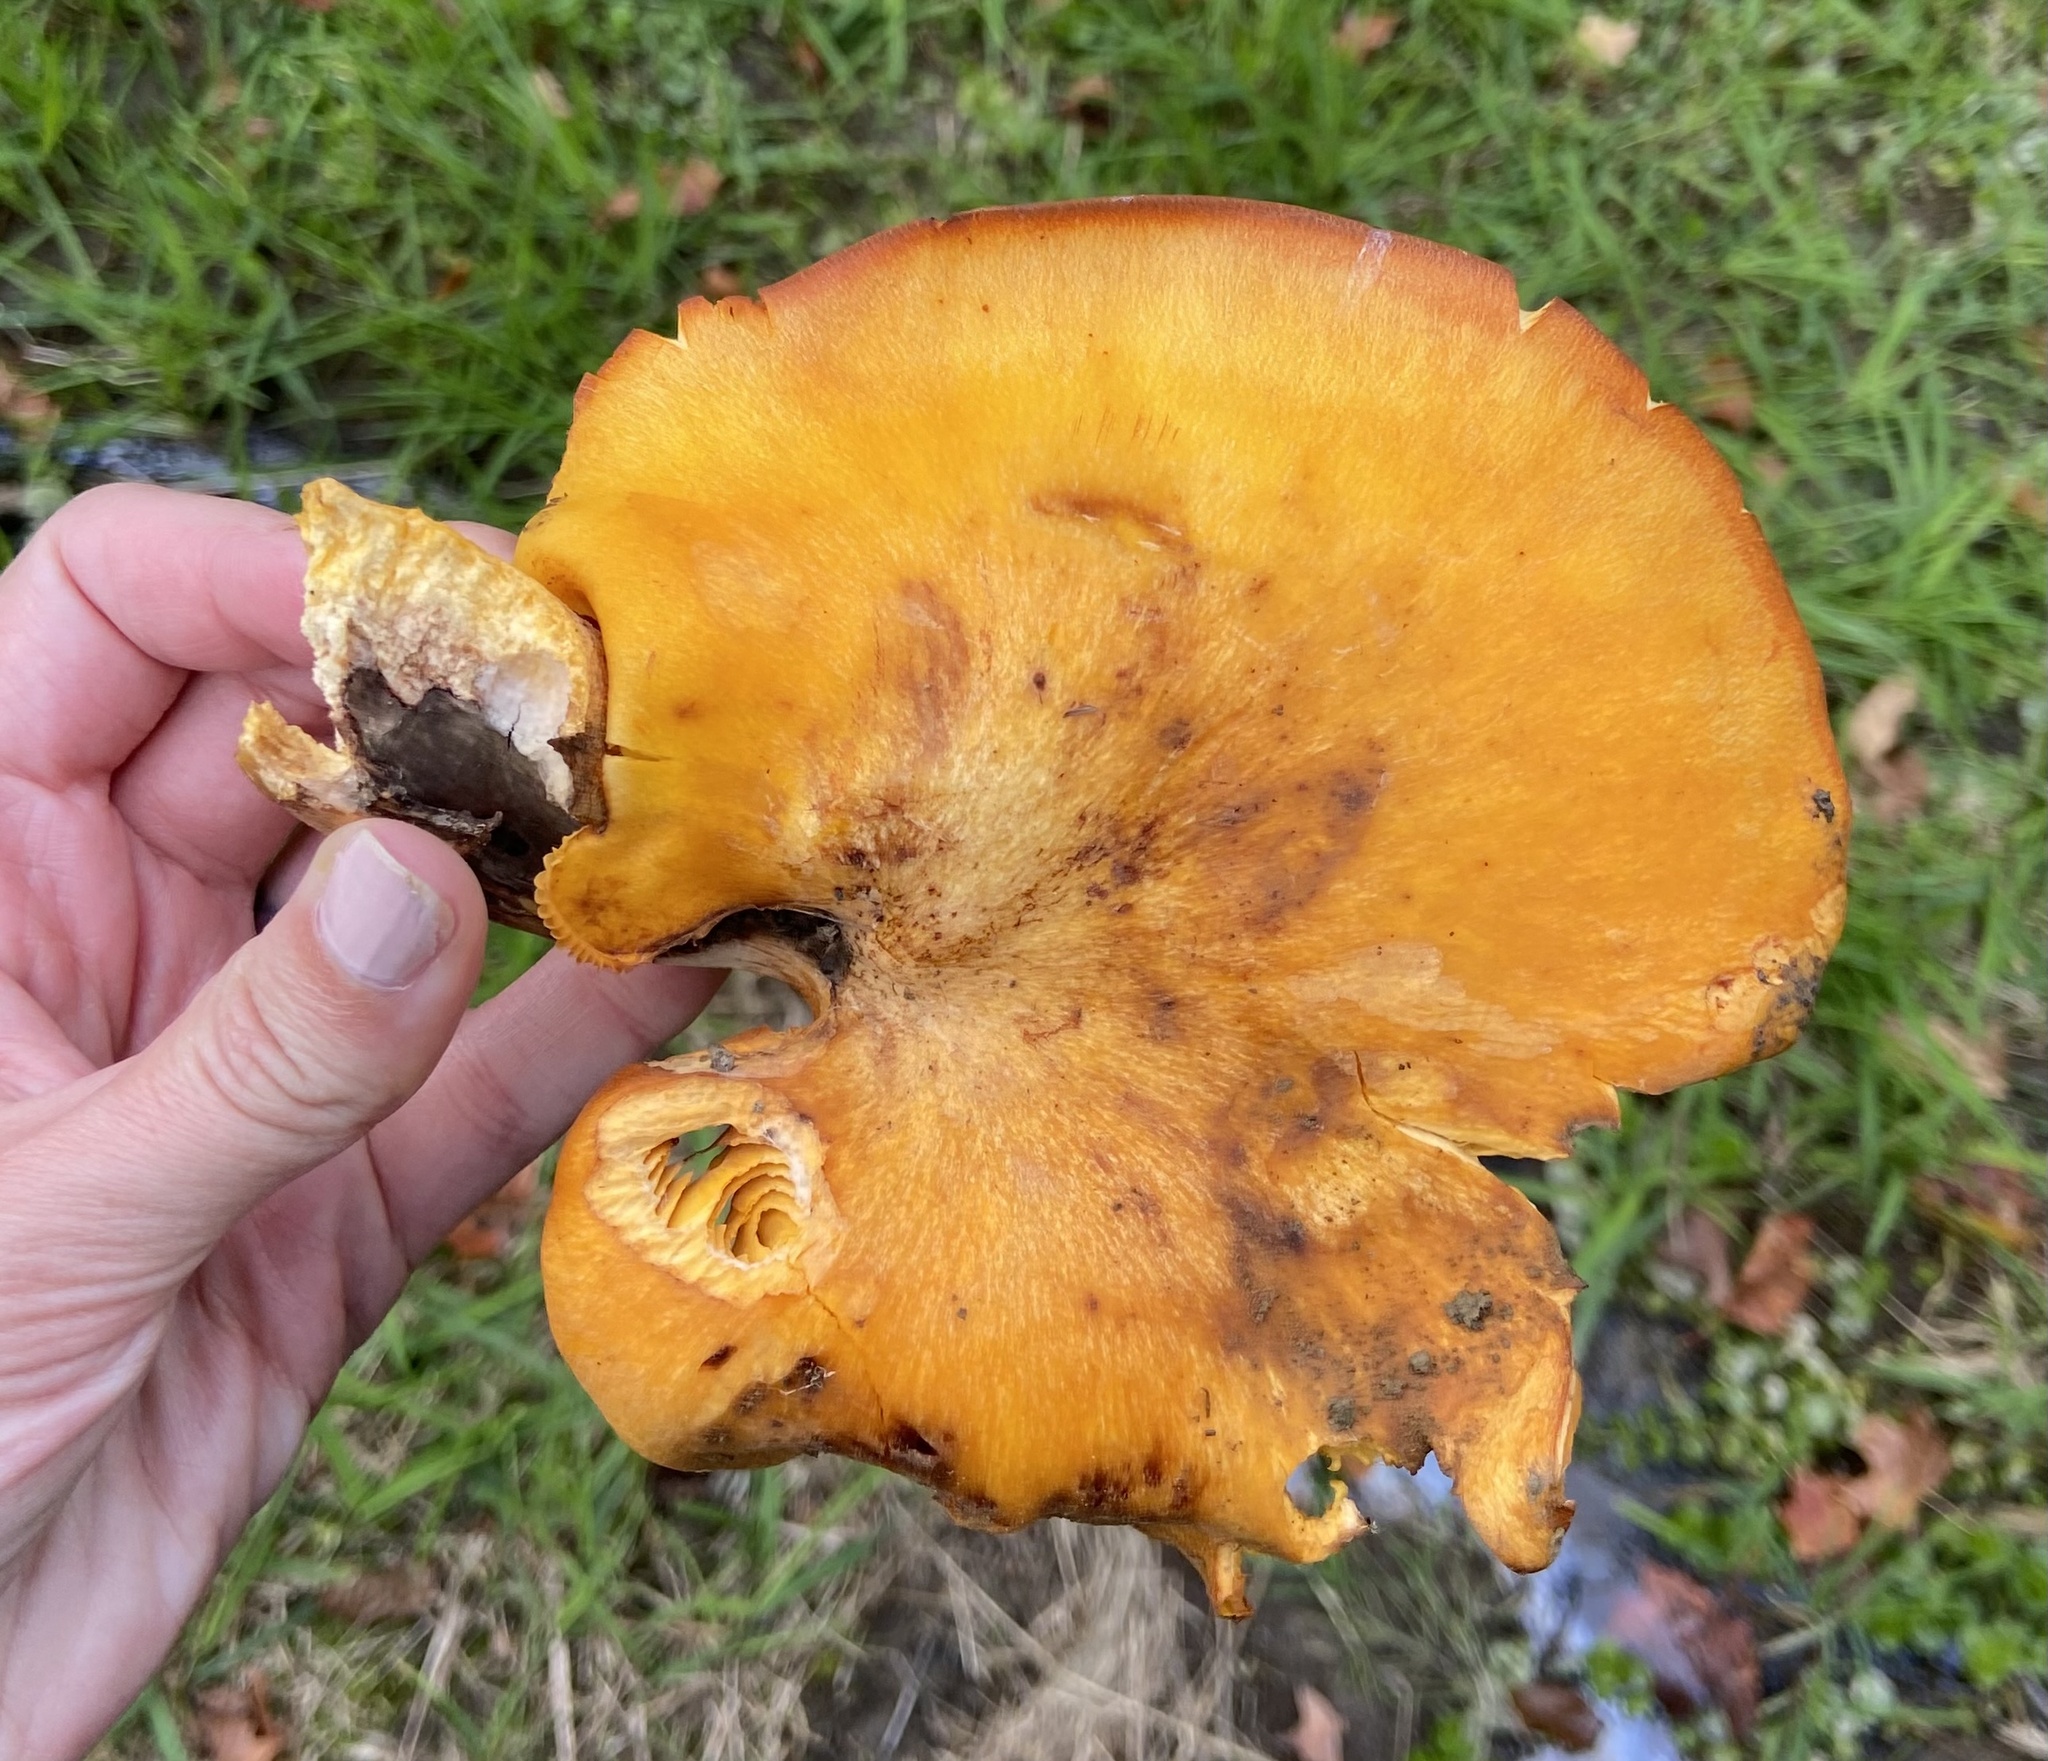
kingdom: Fungi
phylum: Basidiomycota
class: Agaricomycetes
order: Agaricales
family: Omphalotaceae
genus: Omphalotus
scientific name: Omphalotus illudens
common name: Jack o lantern
